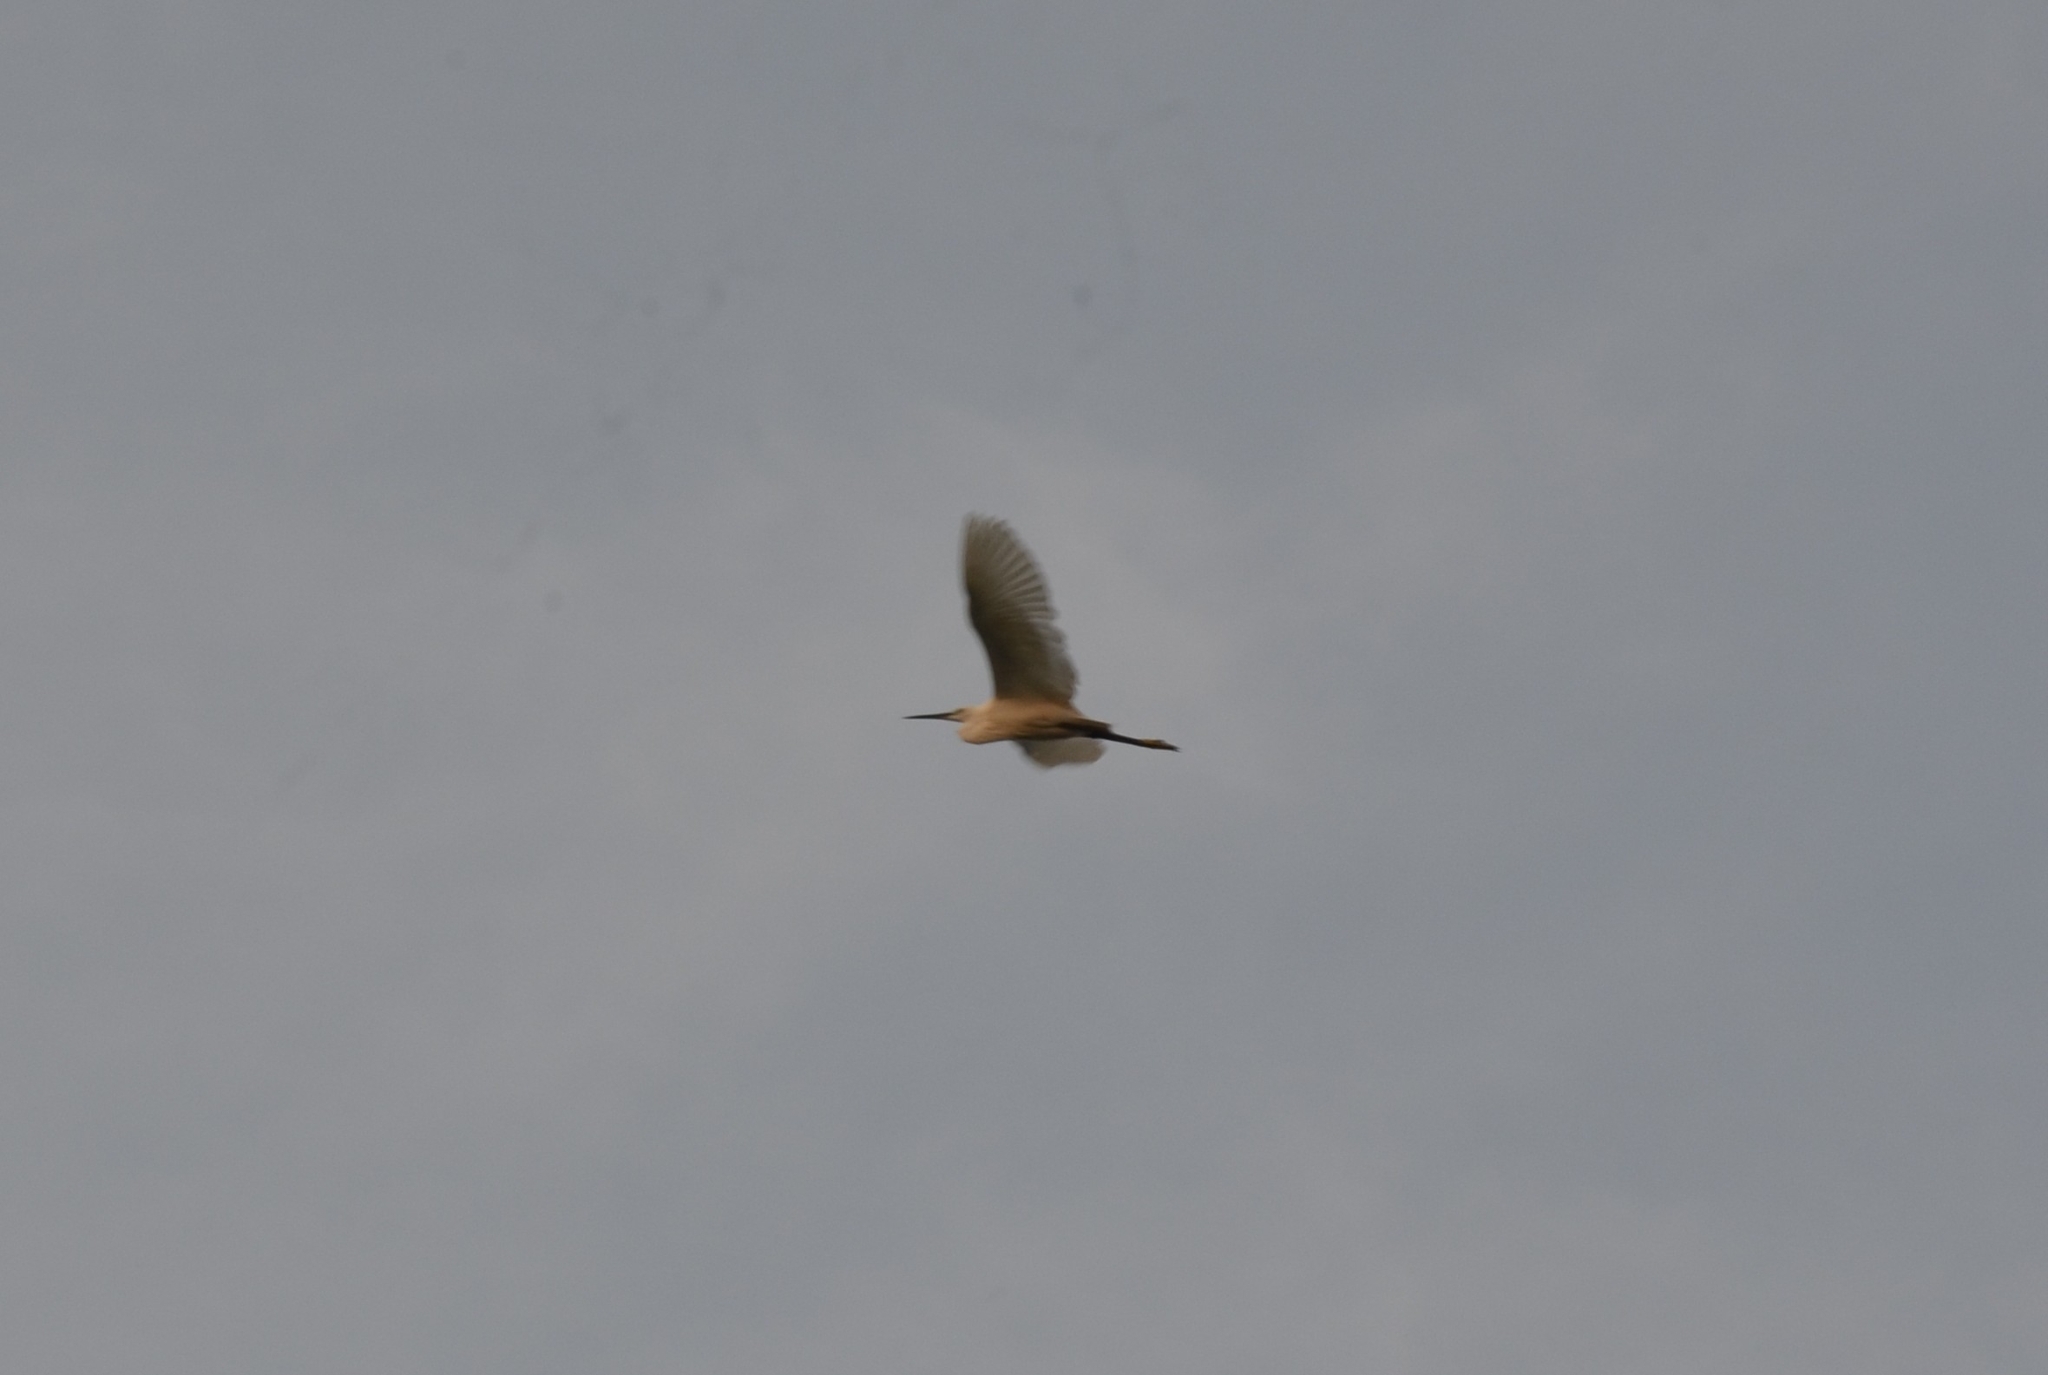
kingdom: Animalia
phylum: Chordata
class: Aves
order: Pelecaniformes
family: Ardeidae
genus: Egretta
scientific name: Egretta garzetta
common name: Little egret
